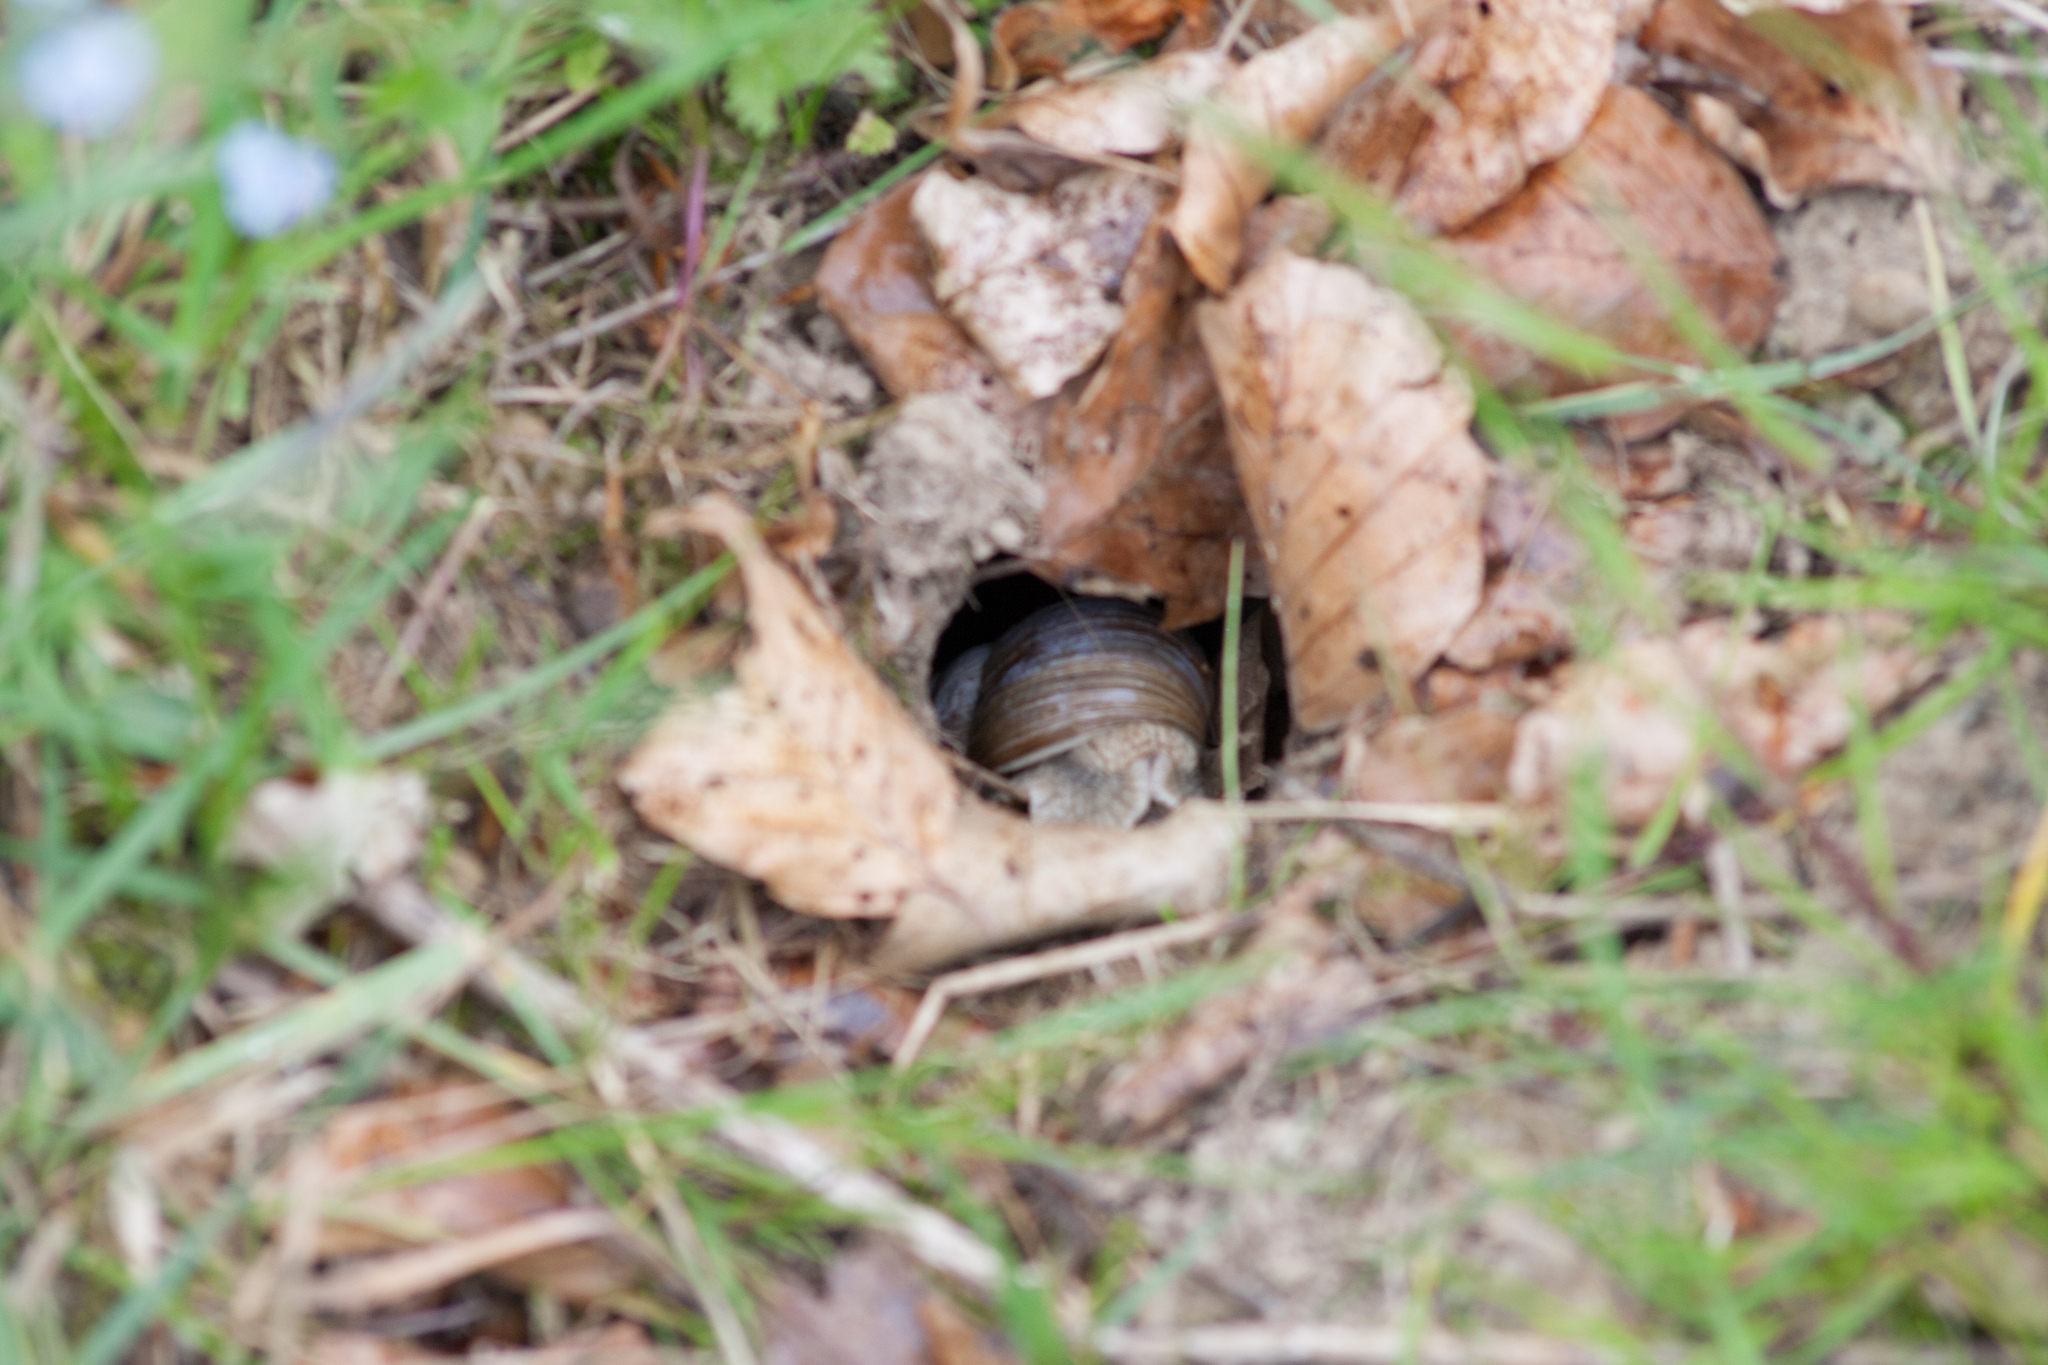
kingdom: Animalia
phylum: Mollusca
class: Gastropoda
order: Stylommatophora
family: Helicidae
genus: Helix
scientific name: Helix pomatia
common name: Roman snail
